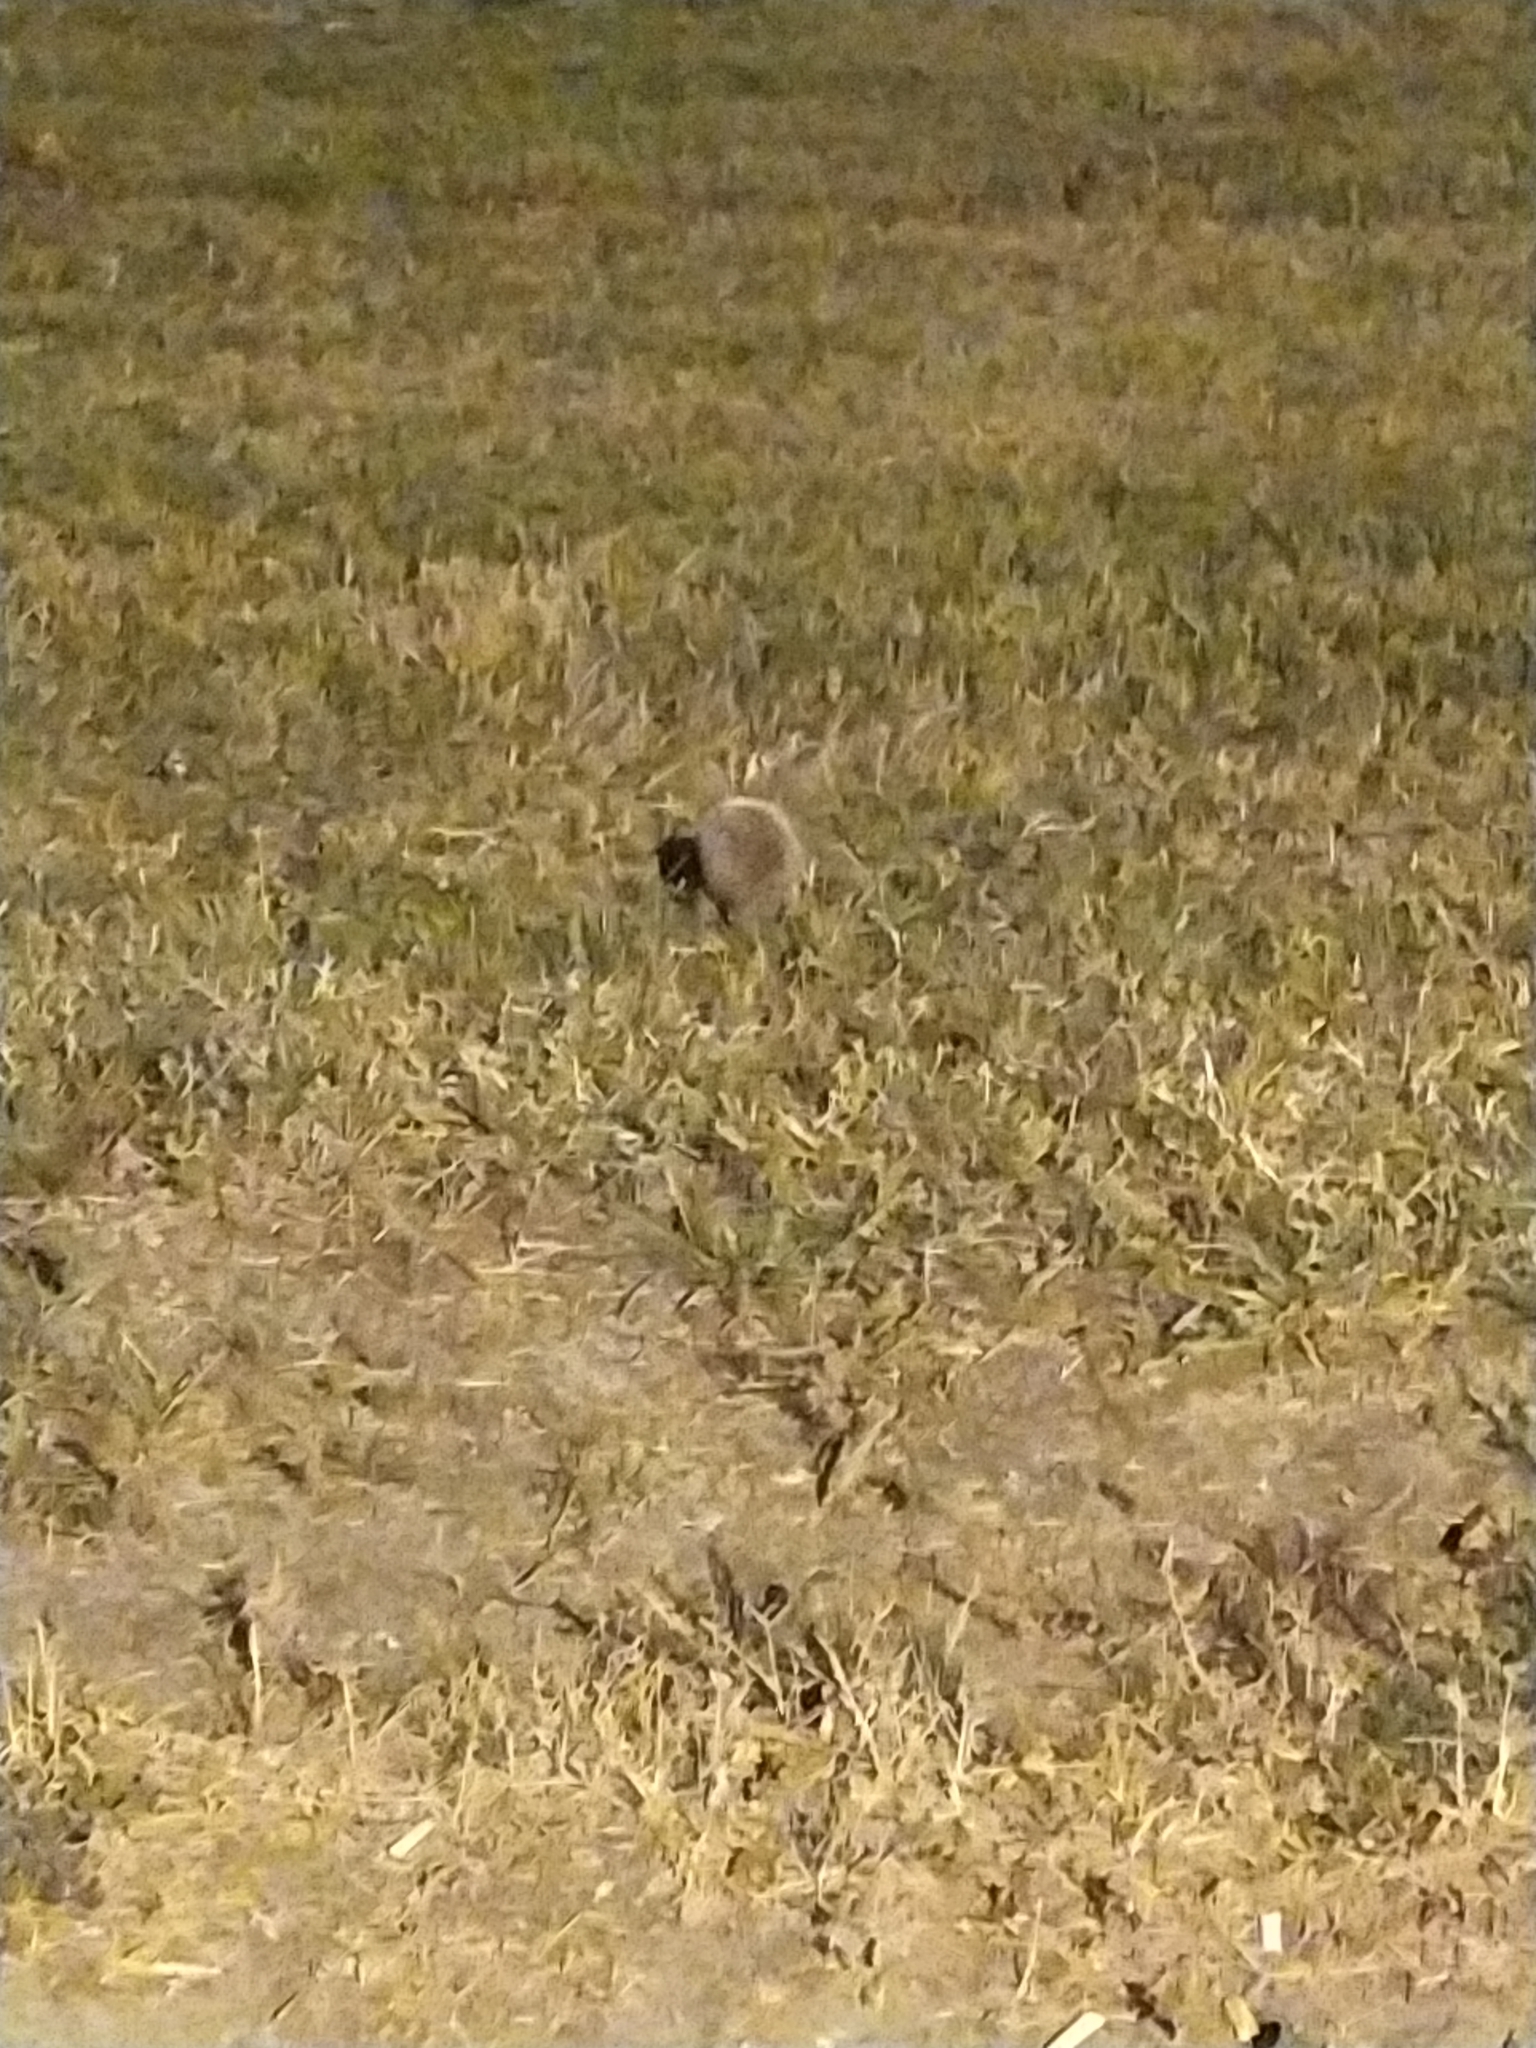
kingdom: Animalia
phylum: Chordata
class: Mammalia
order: Erinaceomorpha
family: Erinaceidae
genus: Erinaceus
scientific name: Erinaceus europaeus
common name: West european hedgehog
